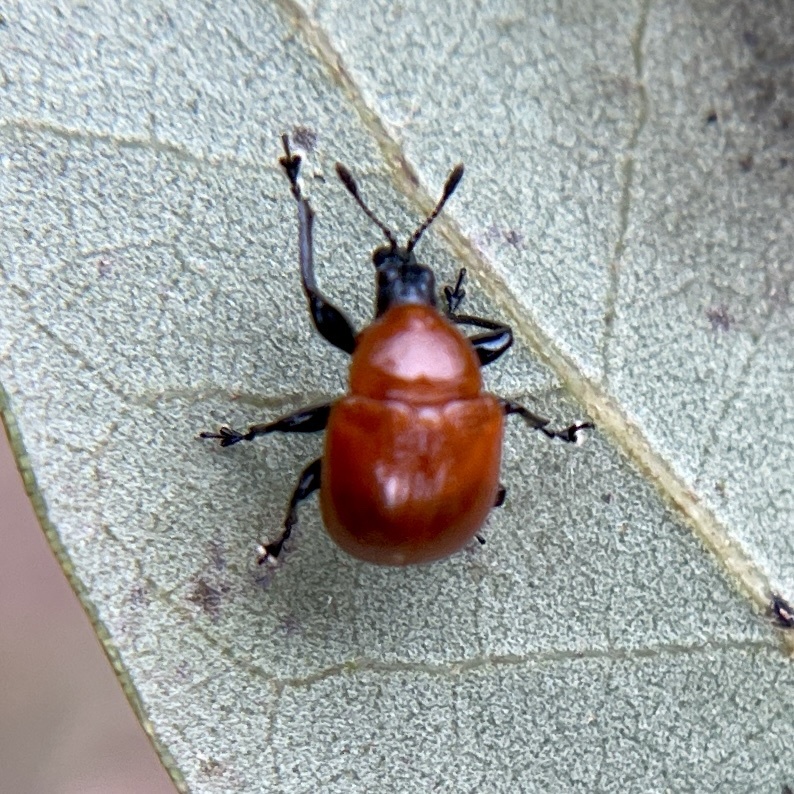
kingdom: Animalia
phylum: Arthropoda
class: Insecta
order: Coleoptera
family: Attelabidae
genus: Homoeolabus
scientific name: Homoeolabus analis
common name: Oak leaf rolling weevil
